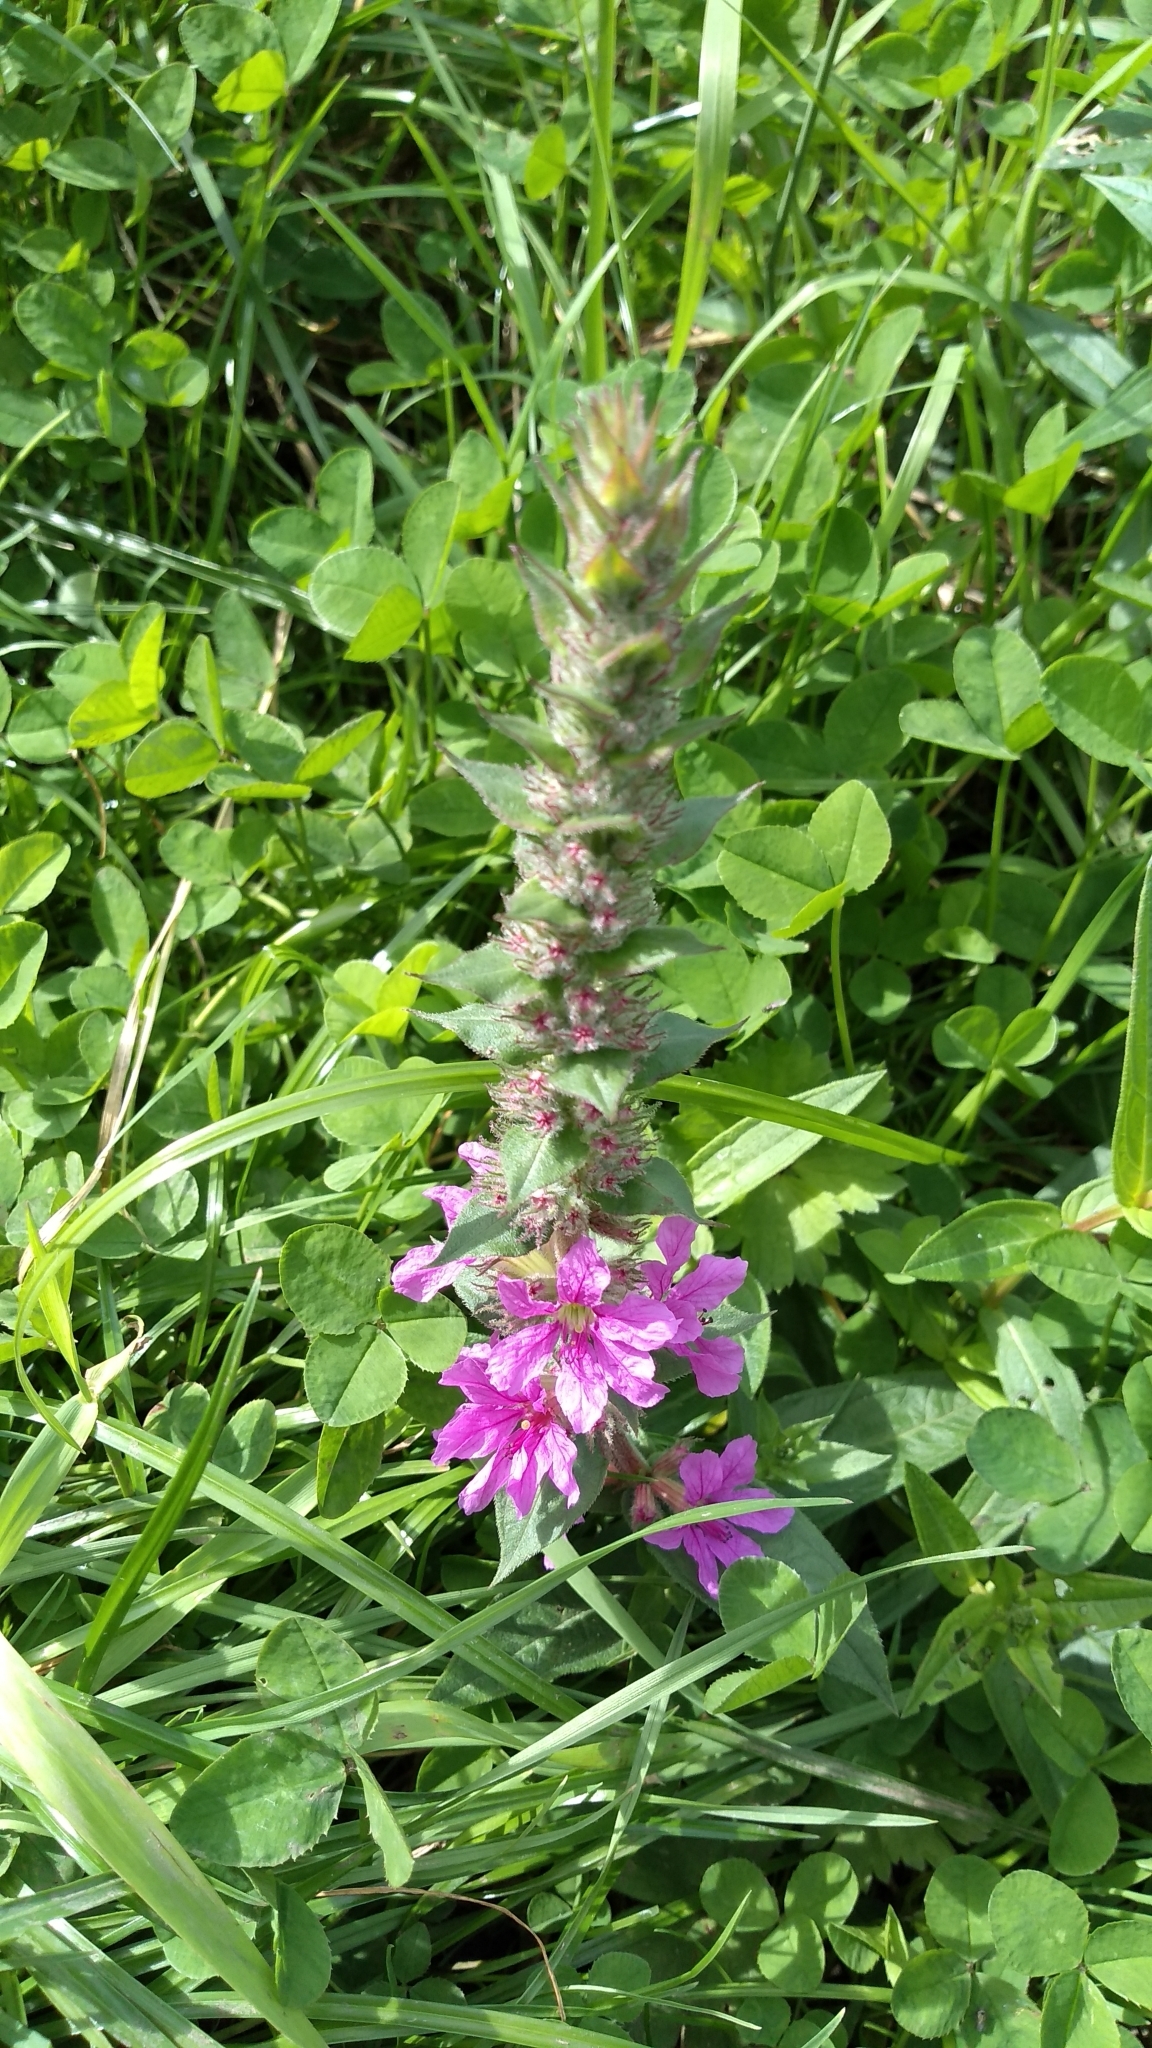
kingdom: Plantae
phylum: Tracheophyta
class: Magnoliopsida
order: Myrtales
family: Lythraceae
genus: Lythrum
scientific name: Lythrum salicaria
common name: Purple loosestrife
